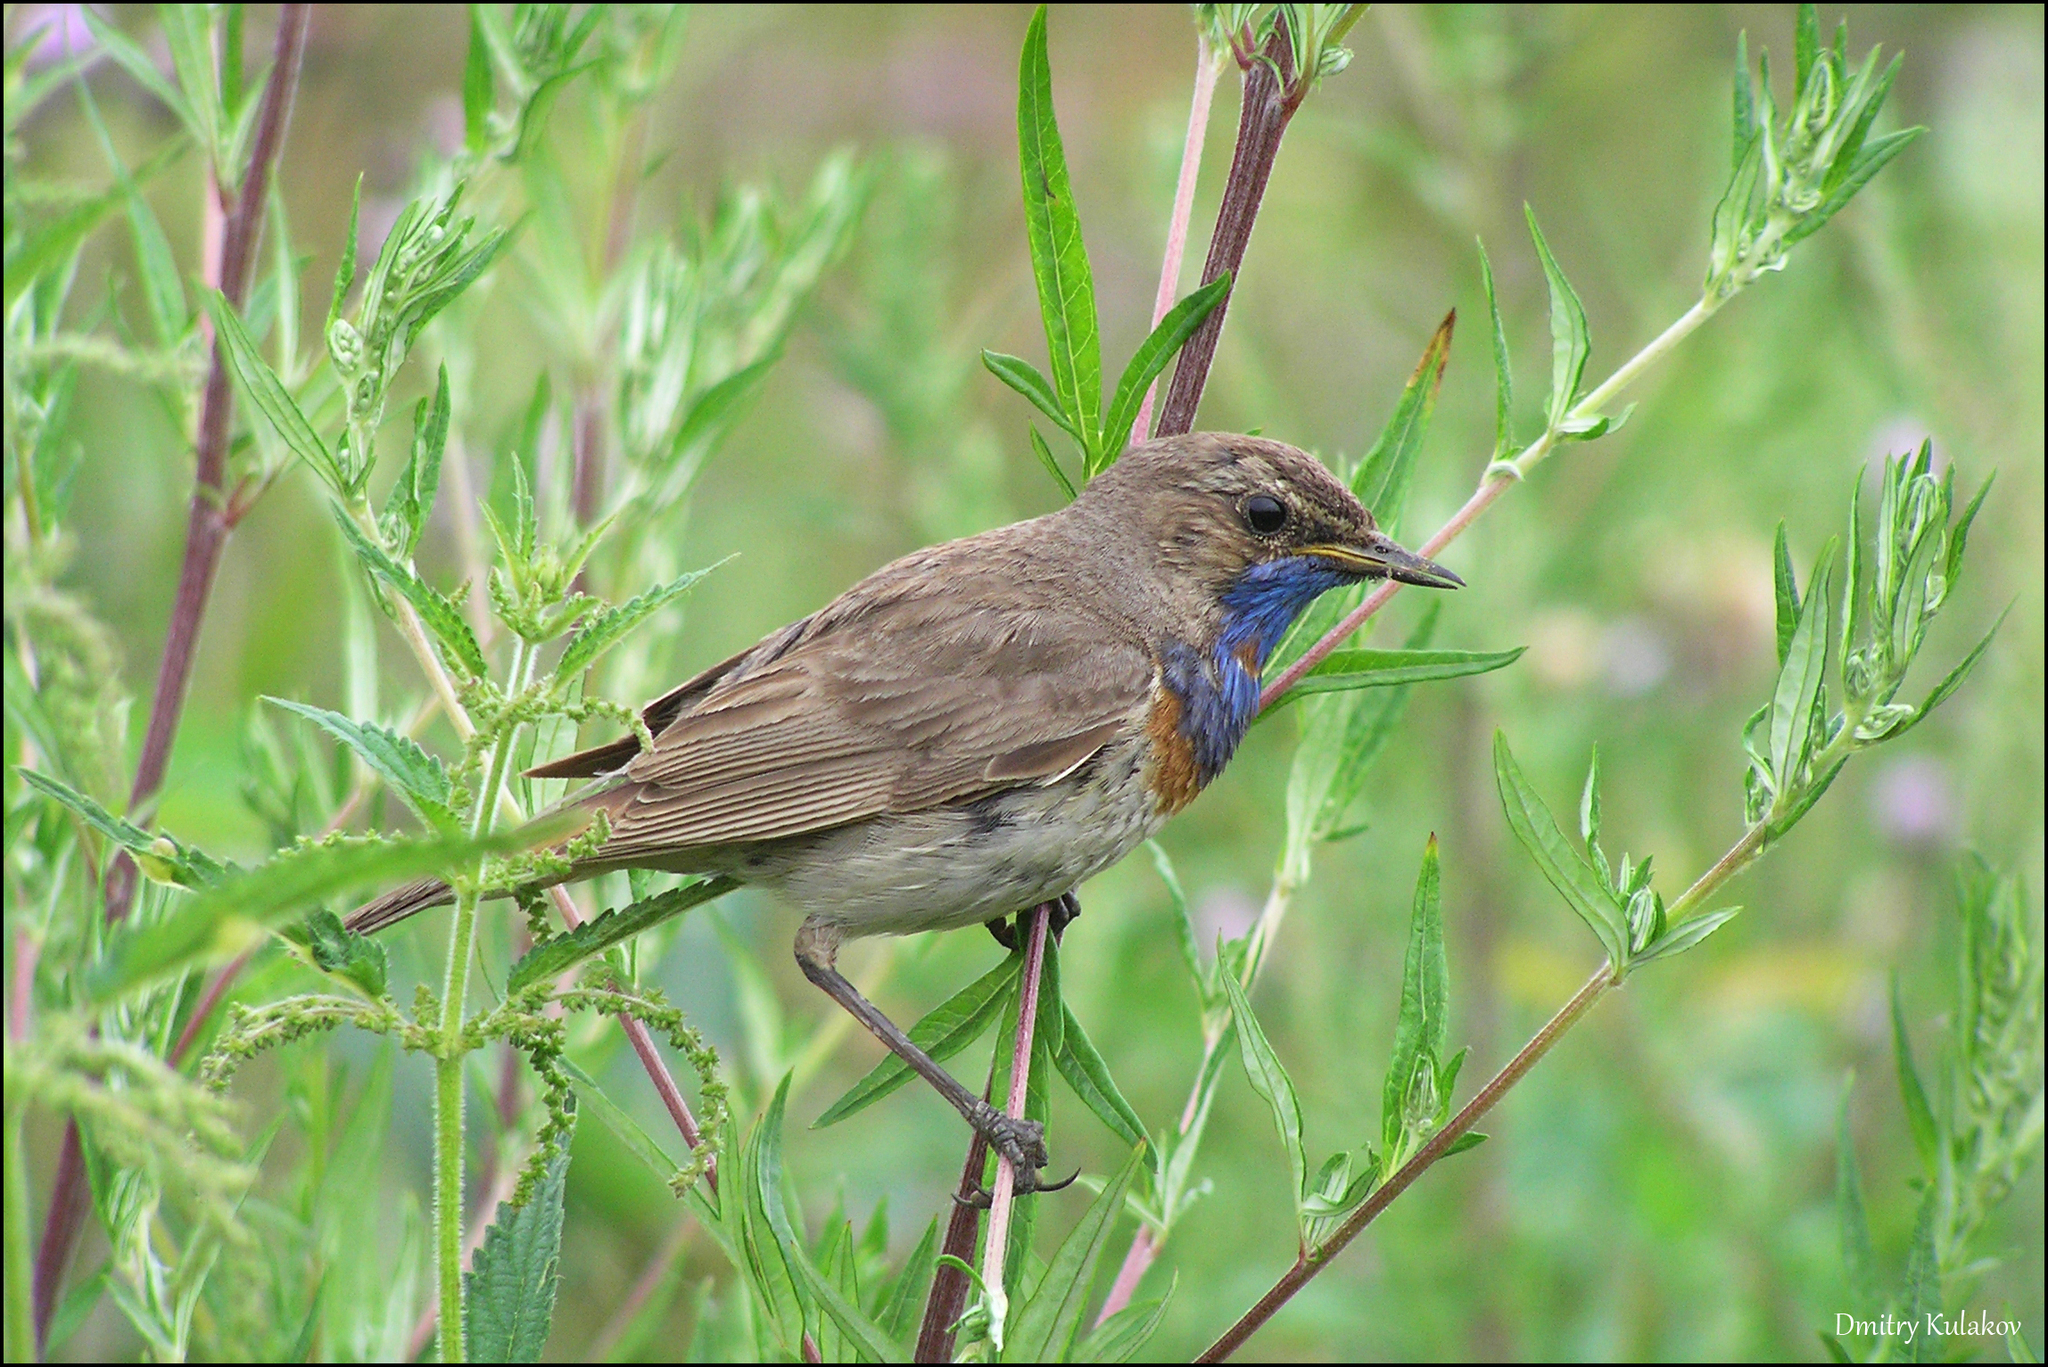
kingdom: Animalia
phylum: Chordata
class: Aves
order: Passeriformes
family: Muscicapidae
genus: Luscinia
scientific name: Luscinia svecica
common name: Bluethroat
